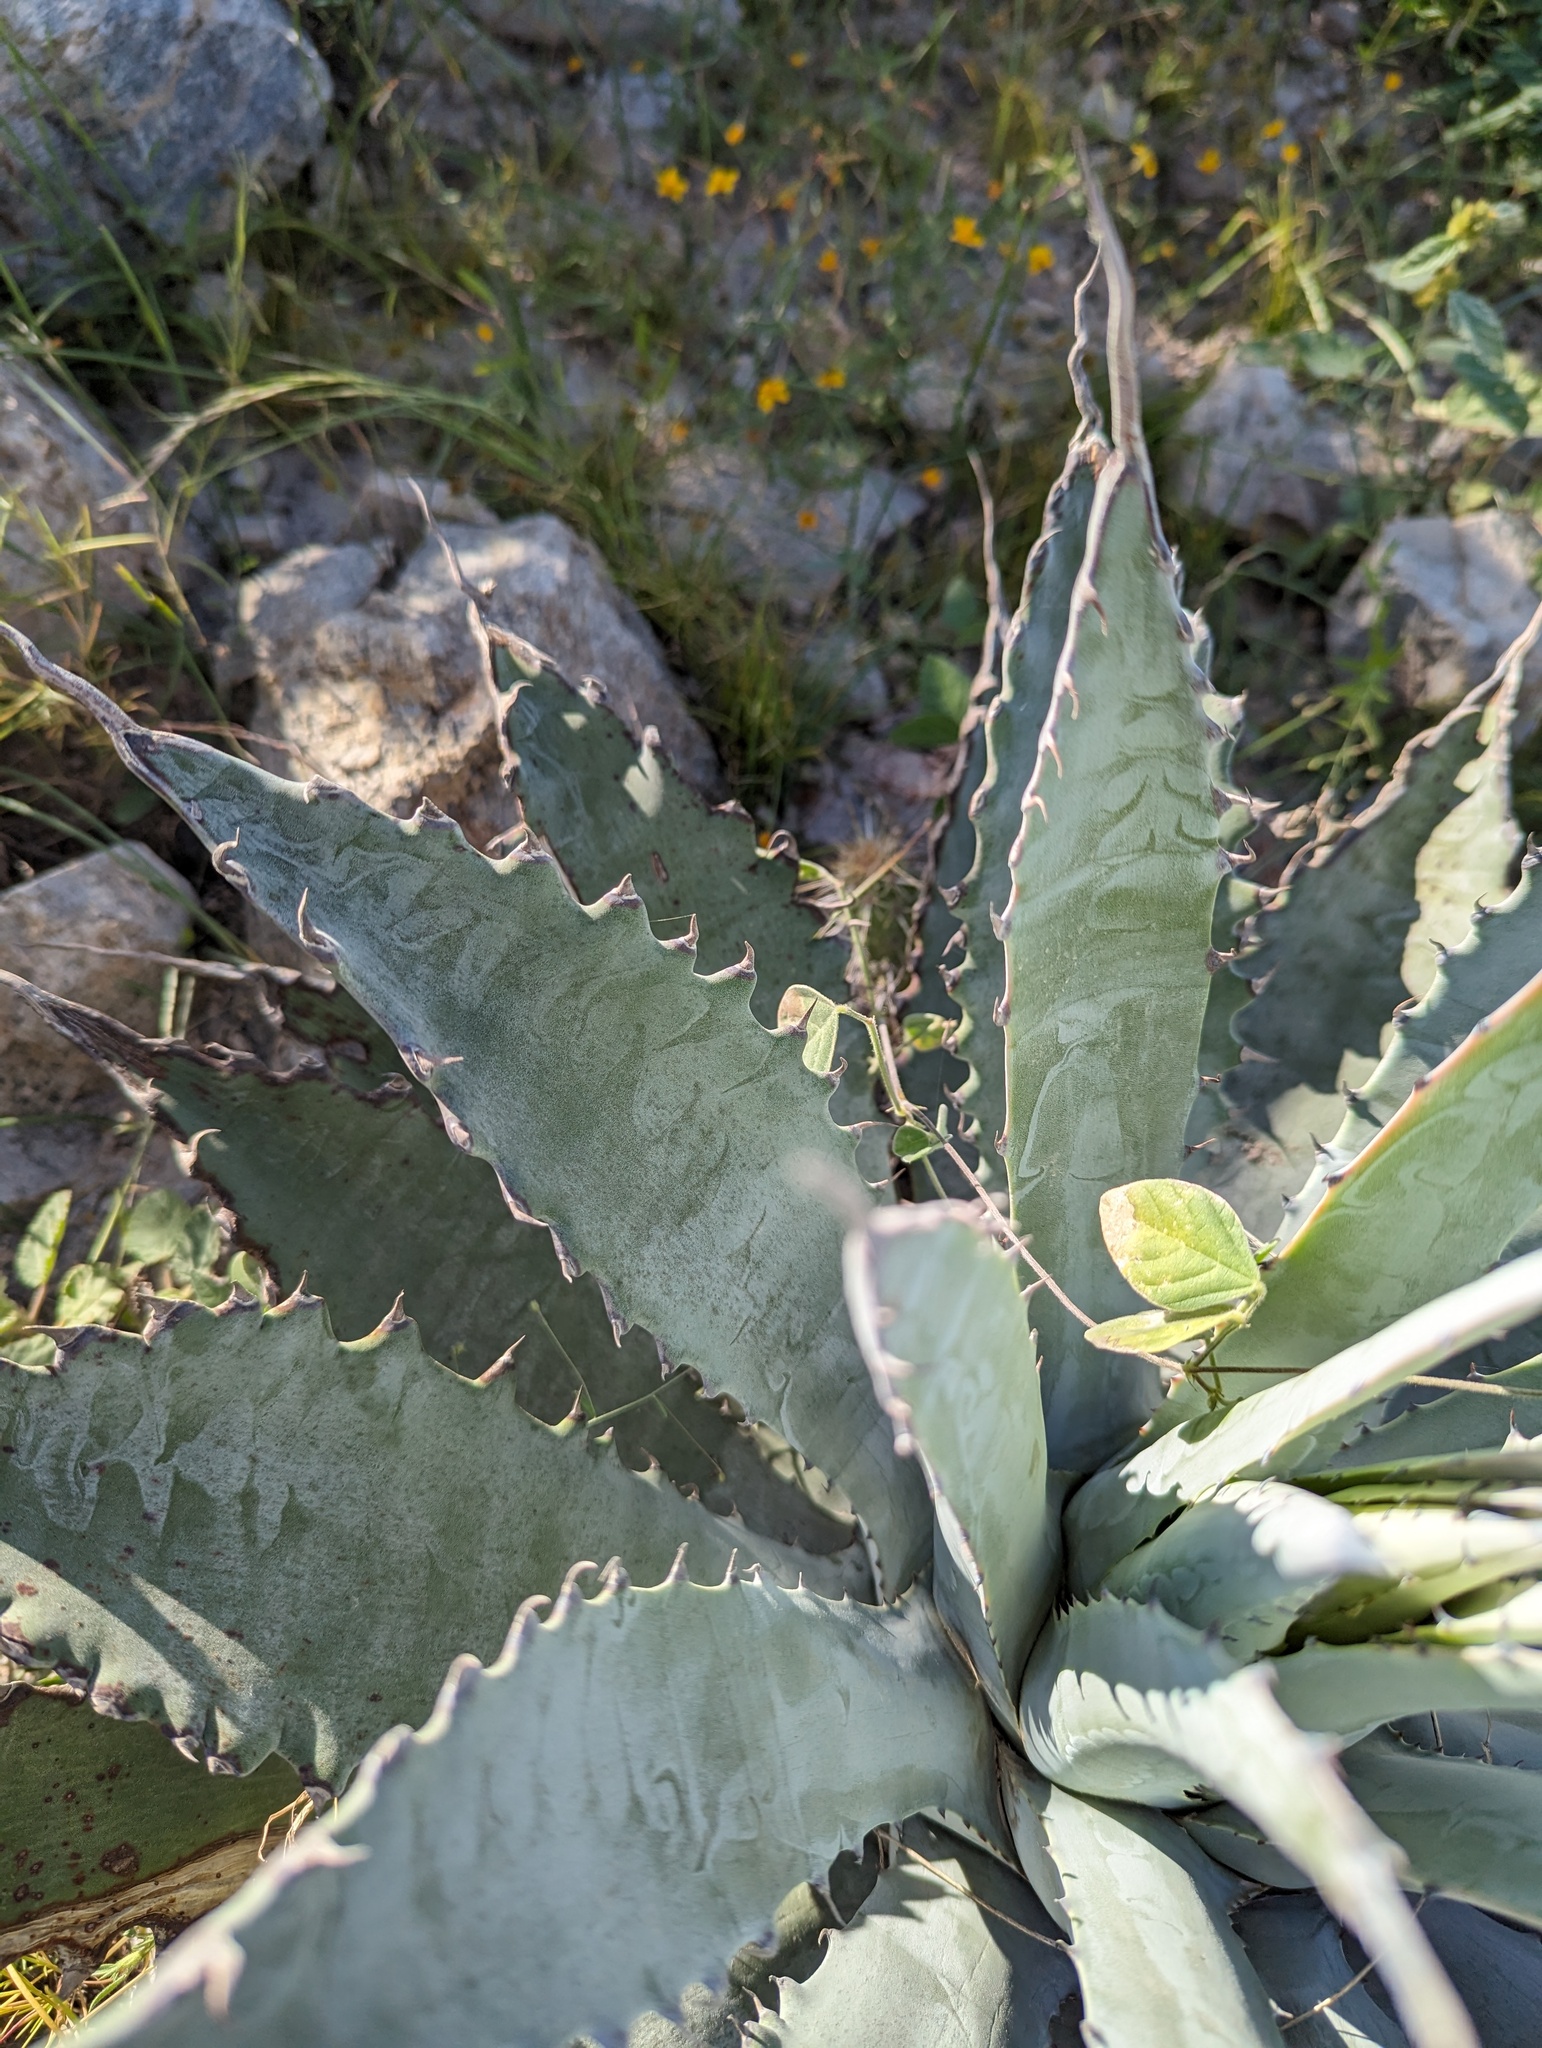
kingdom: Plantae
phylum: Tracheophyta
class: Liliopsida
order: Asparagales
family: Asparagaceae
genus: Agave
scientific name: Agave sobria
